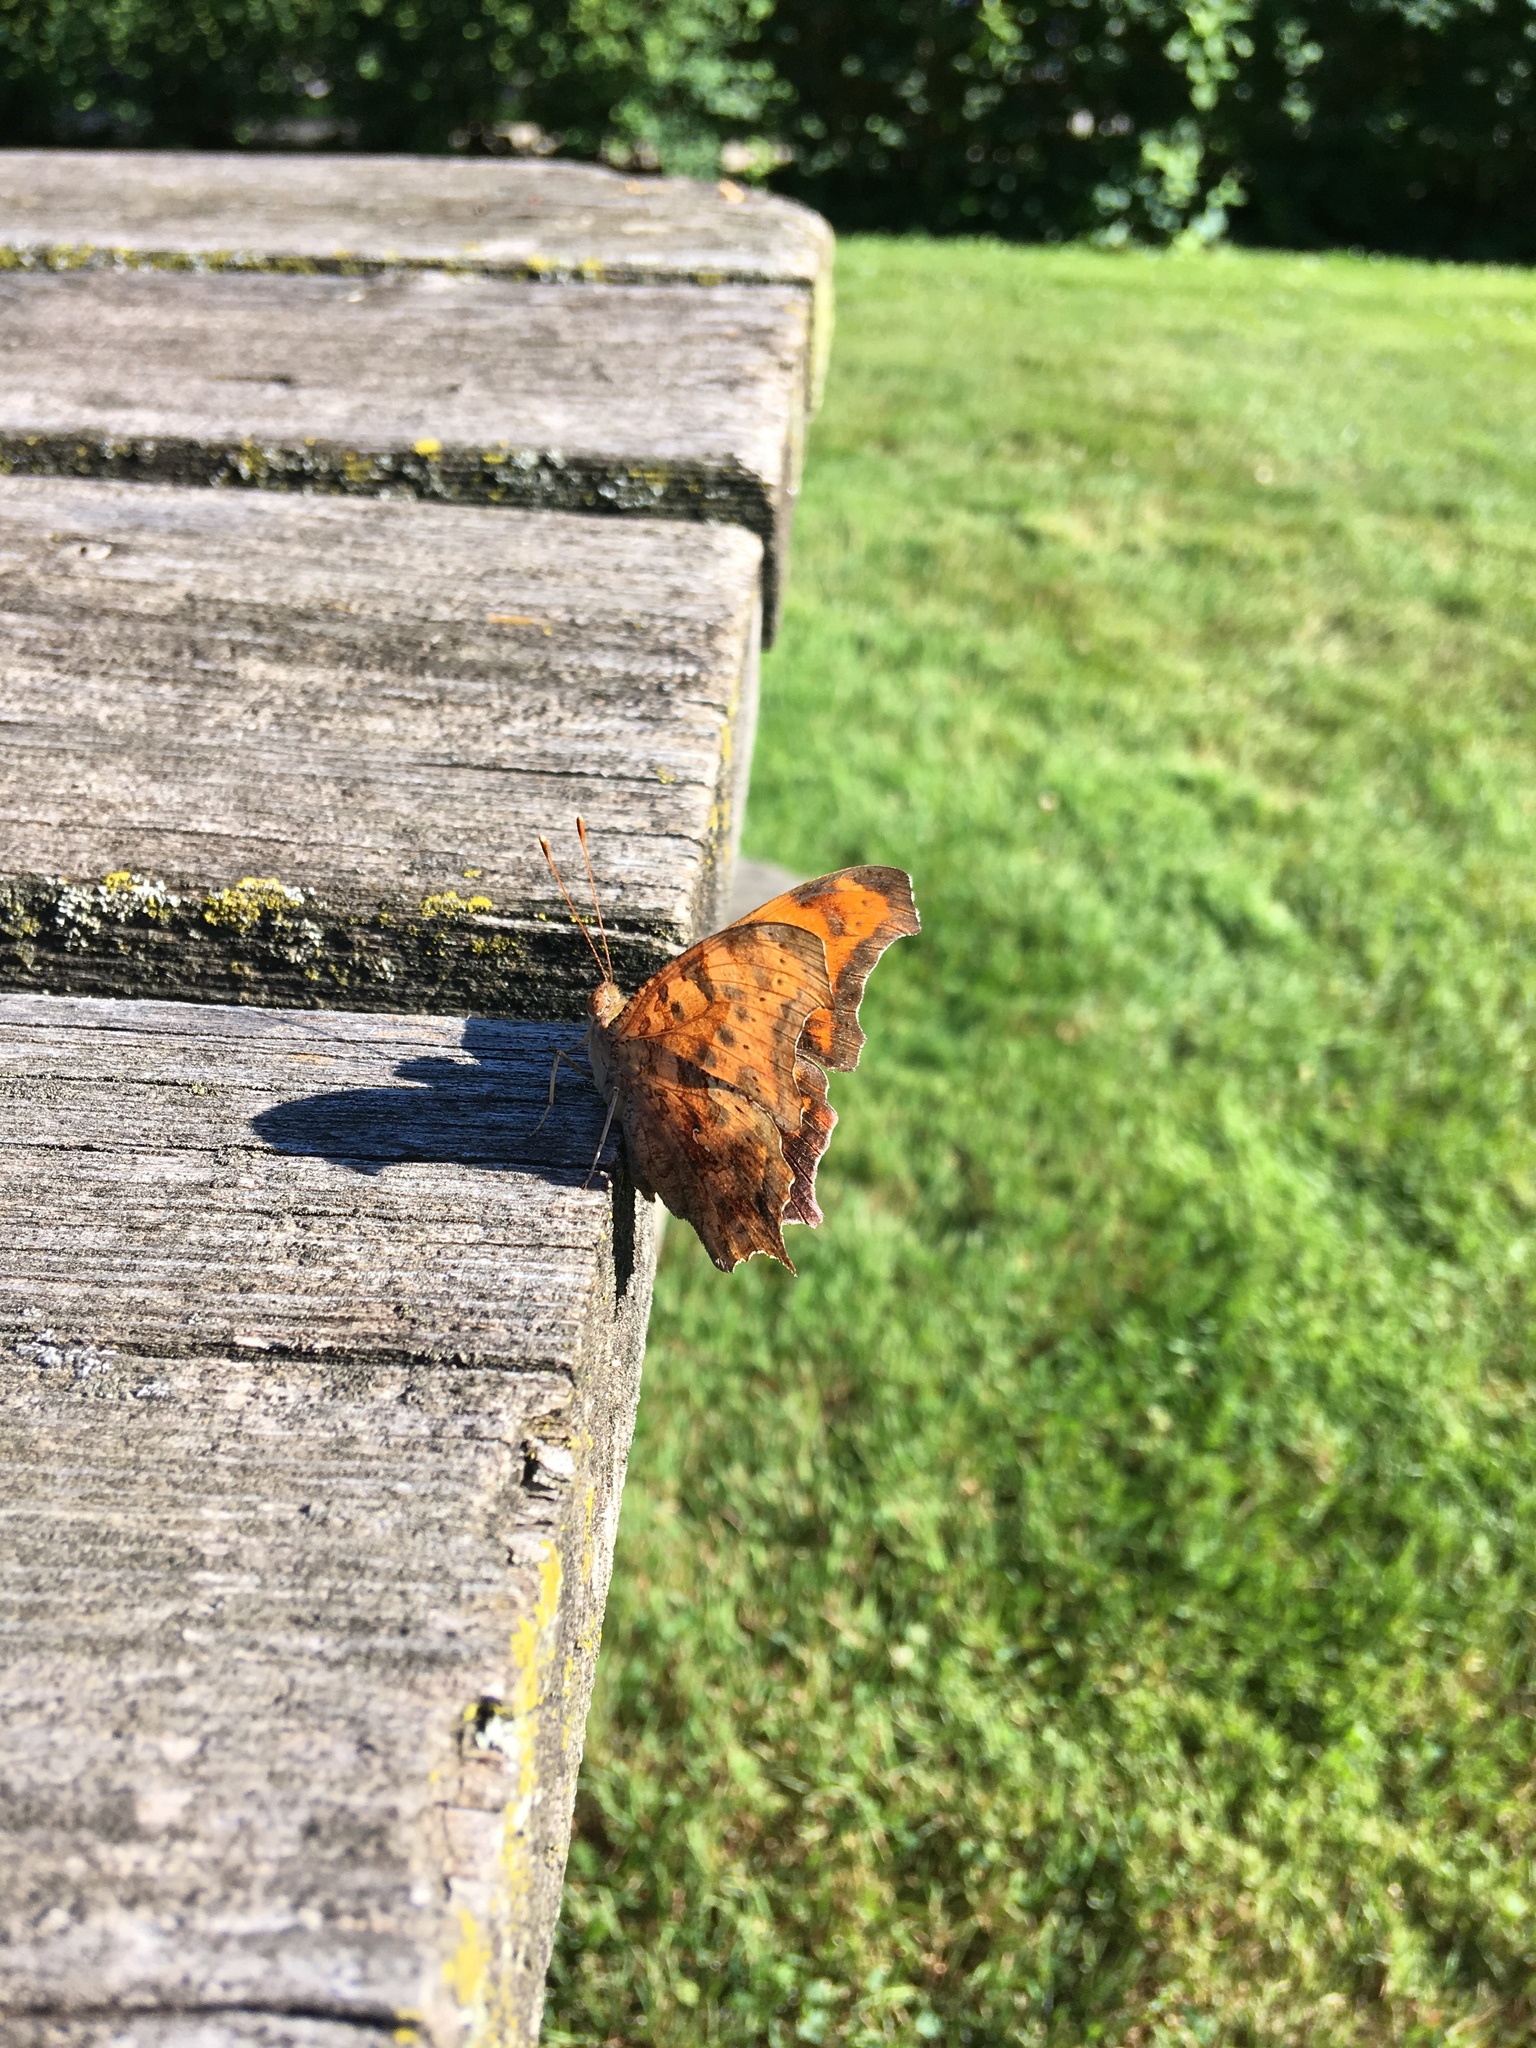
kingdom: Animalia
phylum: Arthropoda
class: Insecta
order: Lepidoptera
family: Nymphalidae
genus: Polygonia
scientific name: Polygonia interrogationis
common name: Question mark
